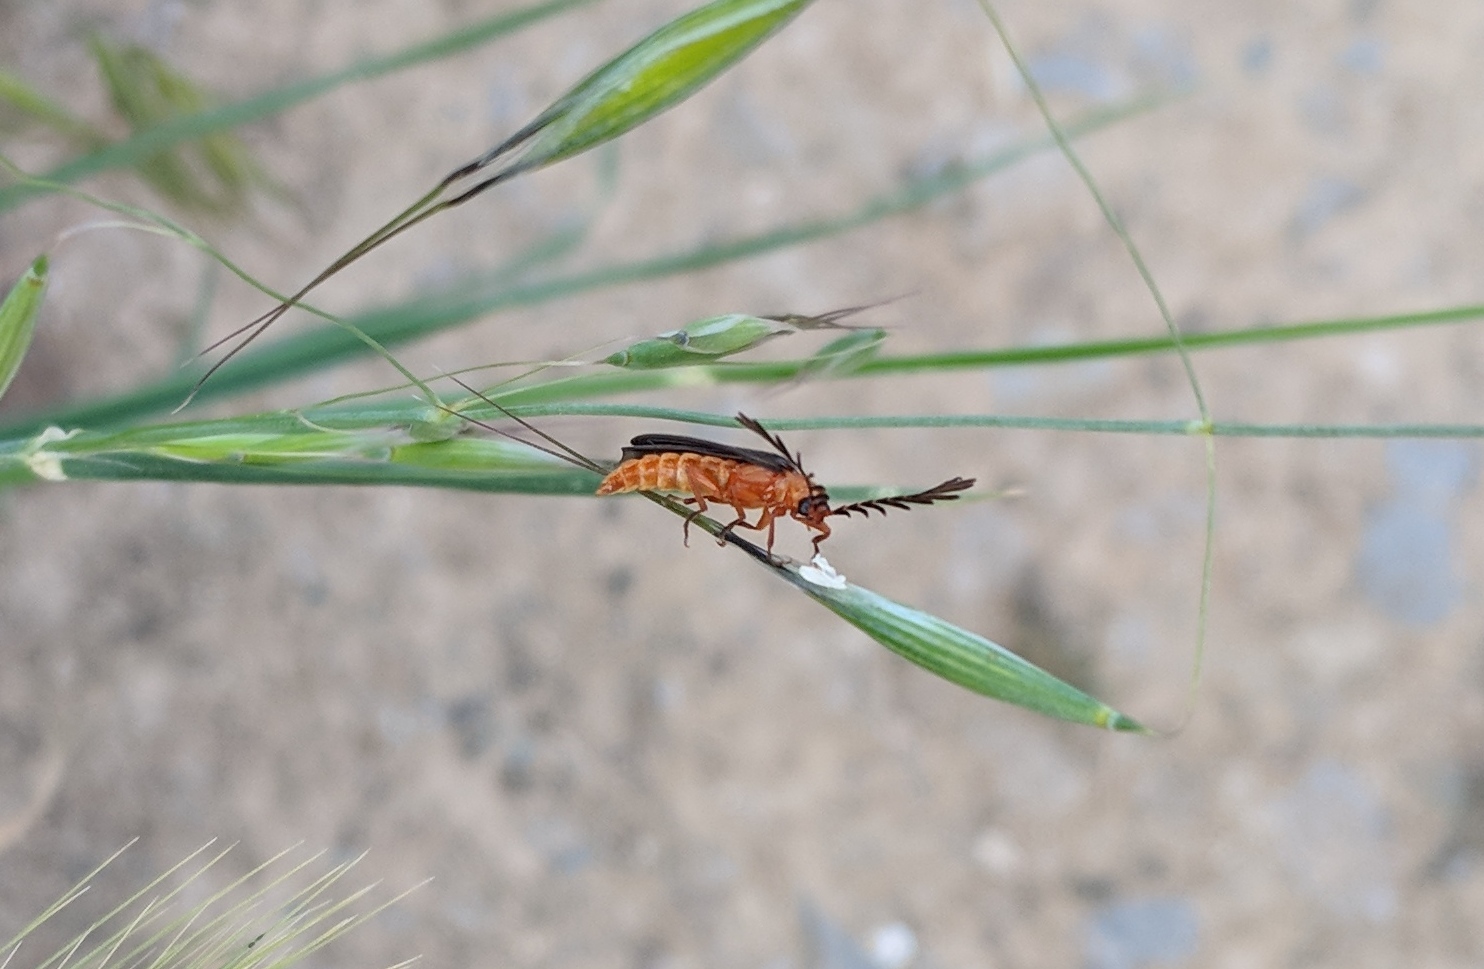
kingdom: Animalia
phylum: Arthropoda
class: Insecta
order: Coleoptera
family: Lampyridae
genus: Pterotus
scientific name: Pterotus obscuripennis
